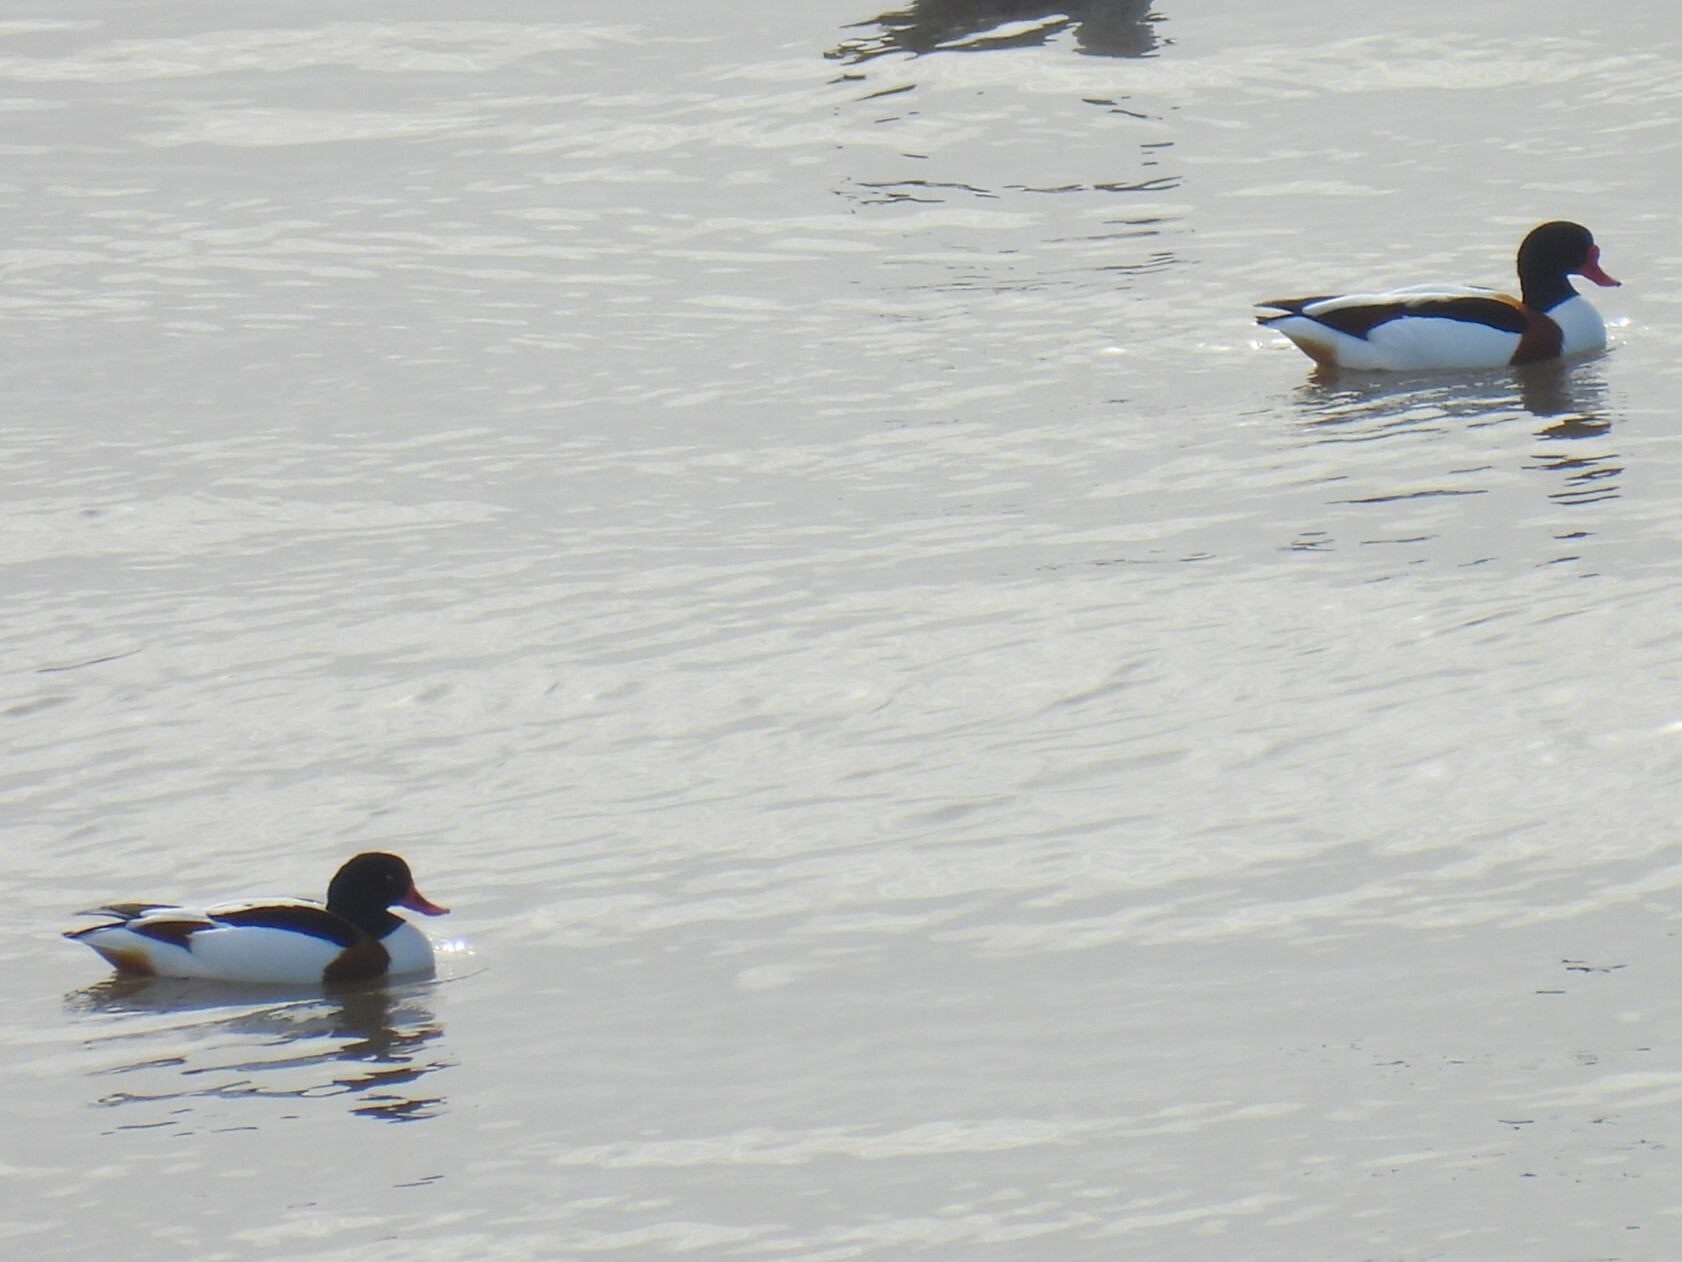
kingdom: Animalia
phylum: Chordata
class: Aves
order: Anseriformes
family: Anatidae
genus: Tadorna
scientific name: Tadorna tadorna
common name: Common shelduck
